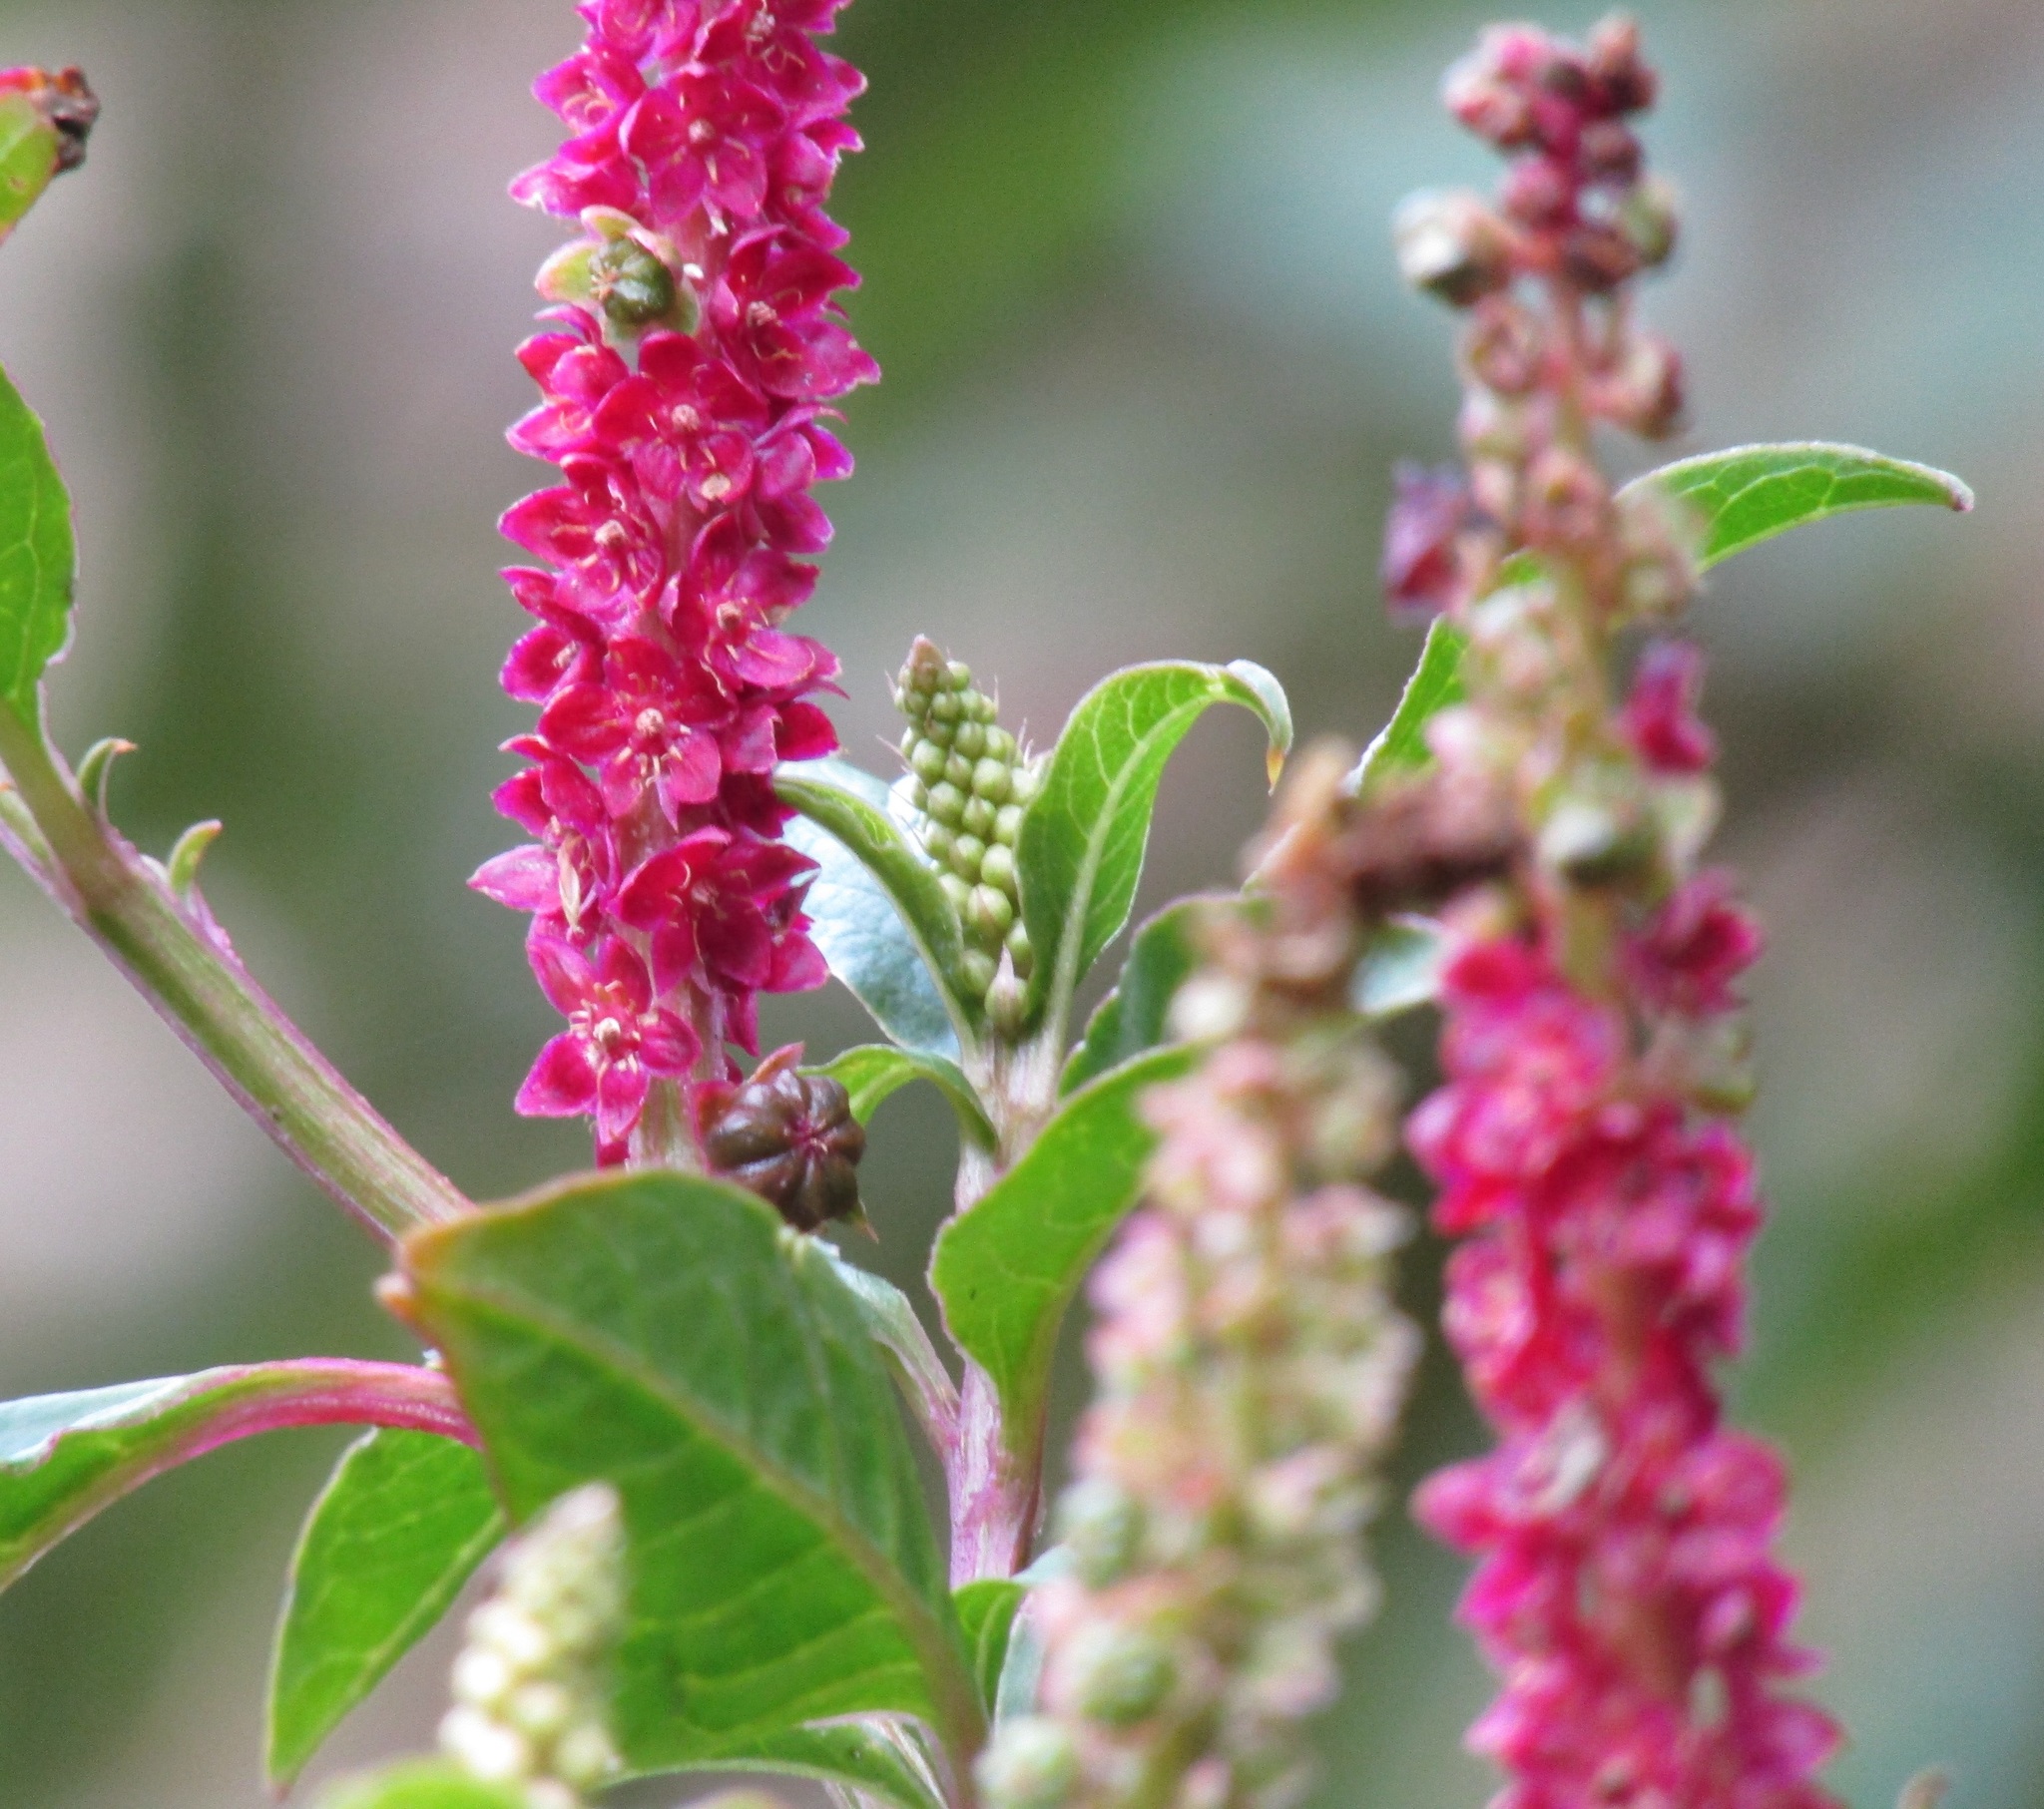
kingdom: Plantae
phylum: Tracheophyta
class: Magnoliopsida
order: Caryophyllales
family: Phytolaccaceae
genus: Phytolacca
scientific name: Phytolacca icosandra
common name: Button pokeweed
